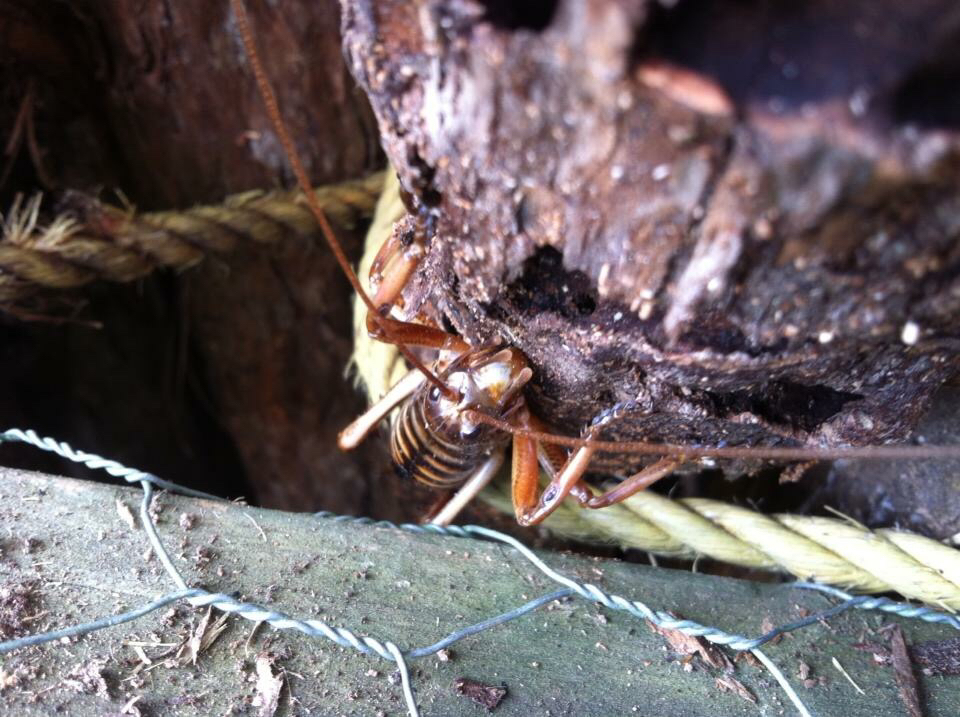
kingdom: Animalia
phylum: Arthropoda
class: Insecta
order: Orthoptera
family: Anostostomatidae
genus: Hemideina
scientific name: Hemideina crassidens
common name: Wellington tree weta
